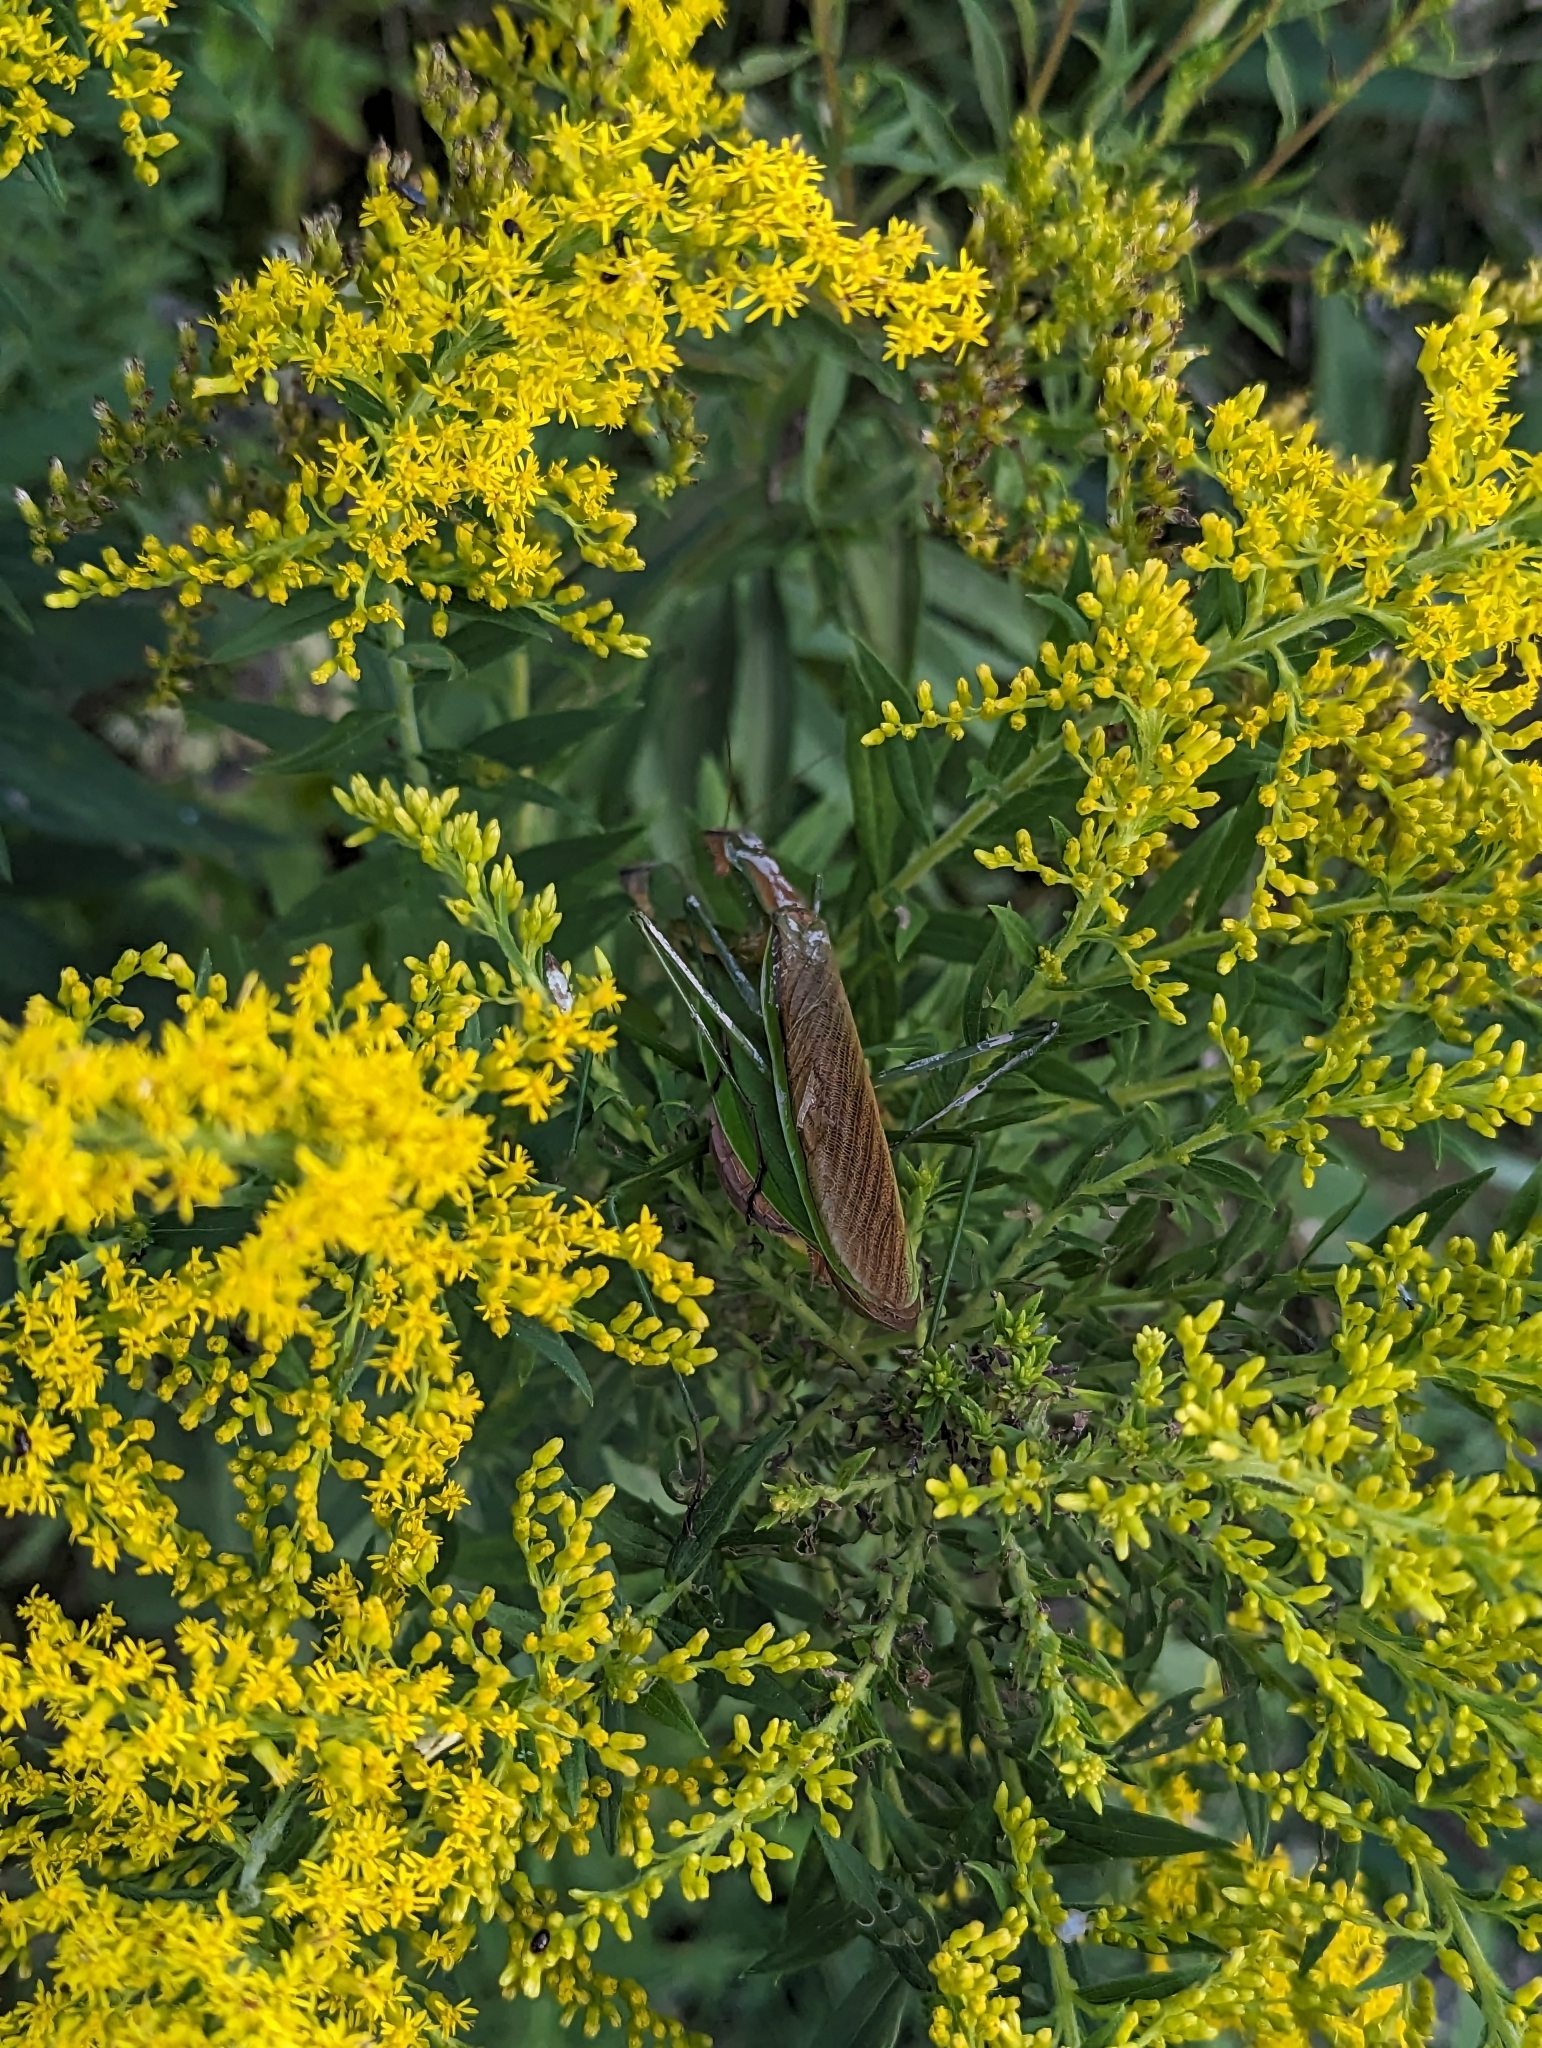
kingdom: Animalia
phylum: Arthropoda
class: Insecta
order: Mantodea
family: Mantidae
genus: Tenodera
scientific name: Tenodera sinensis
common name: Chinese mantis
